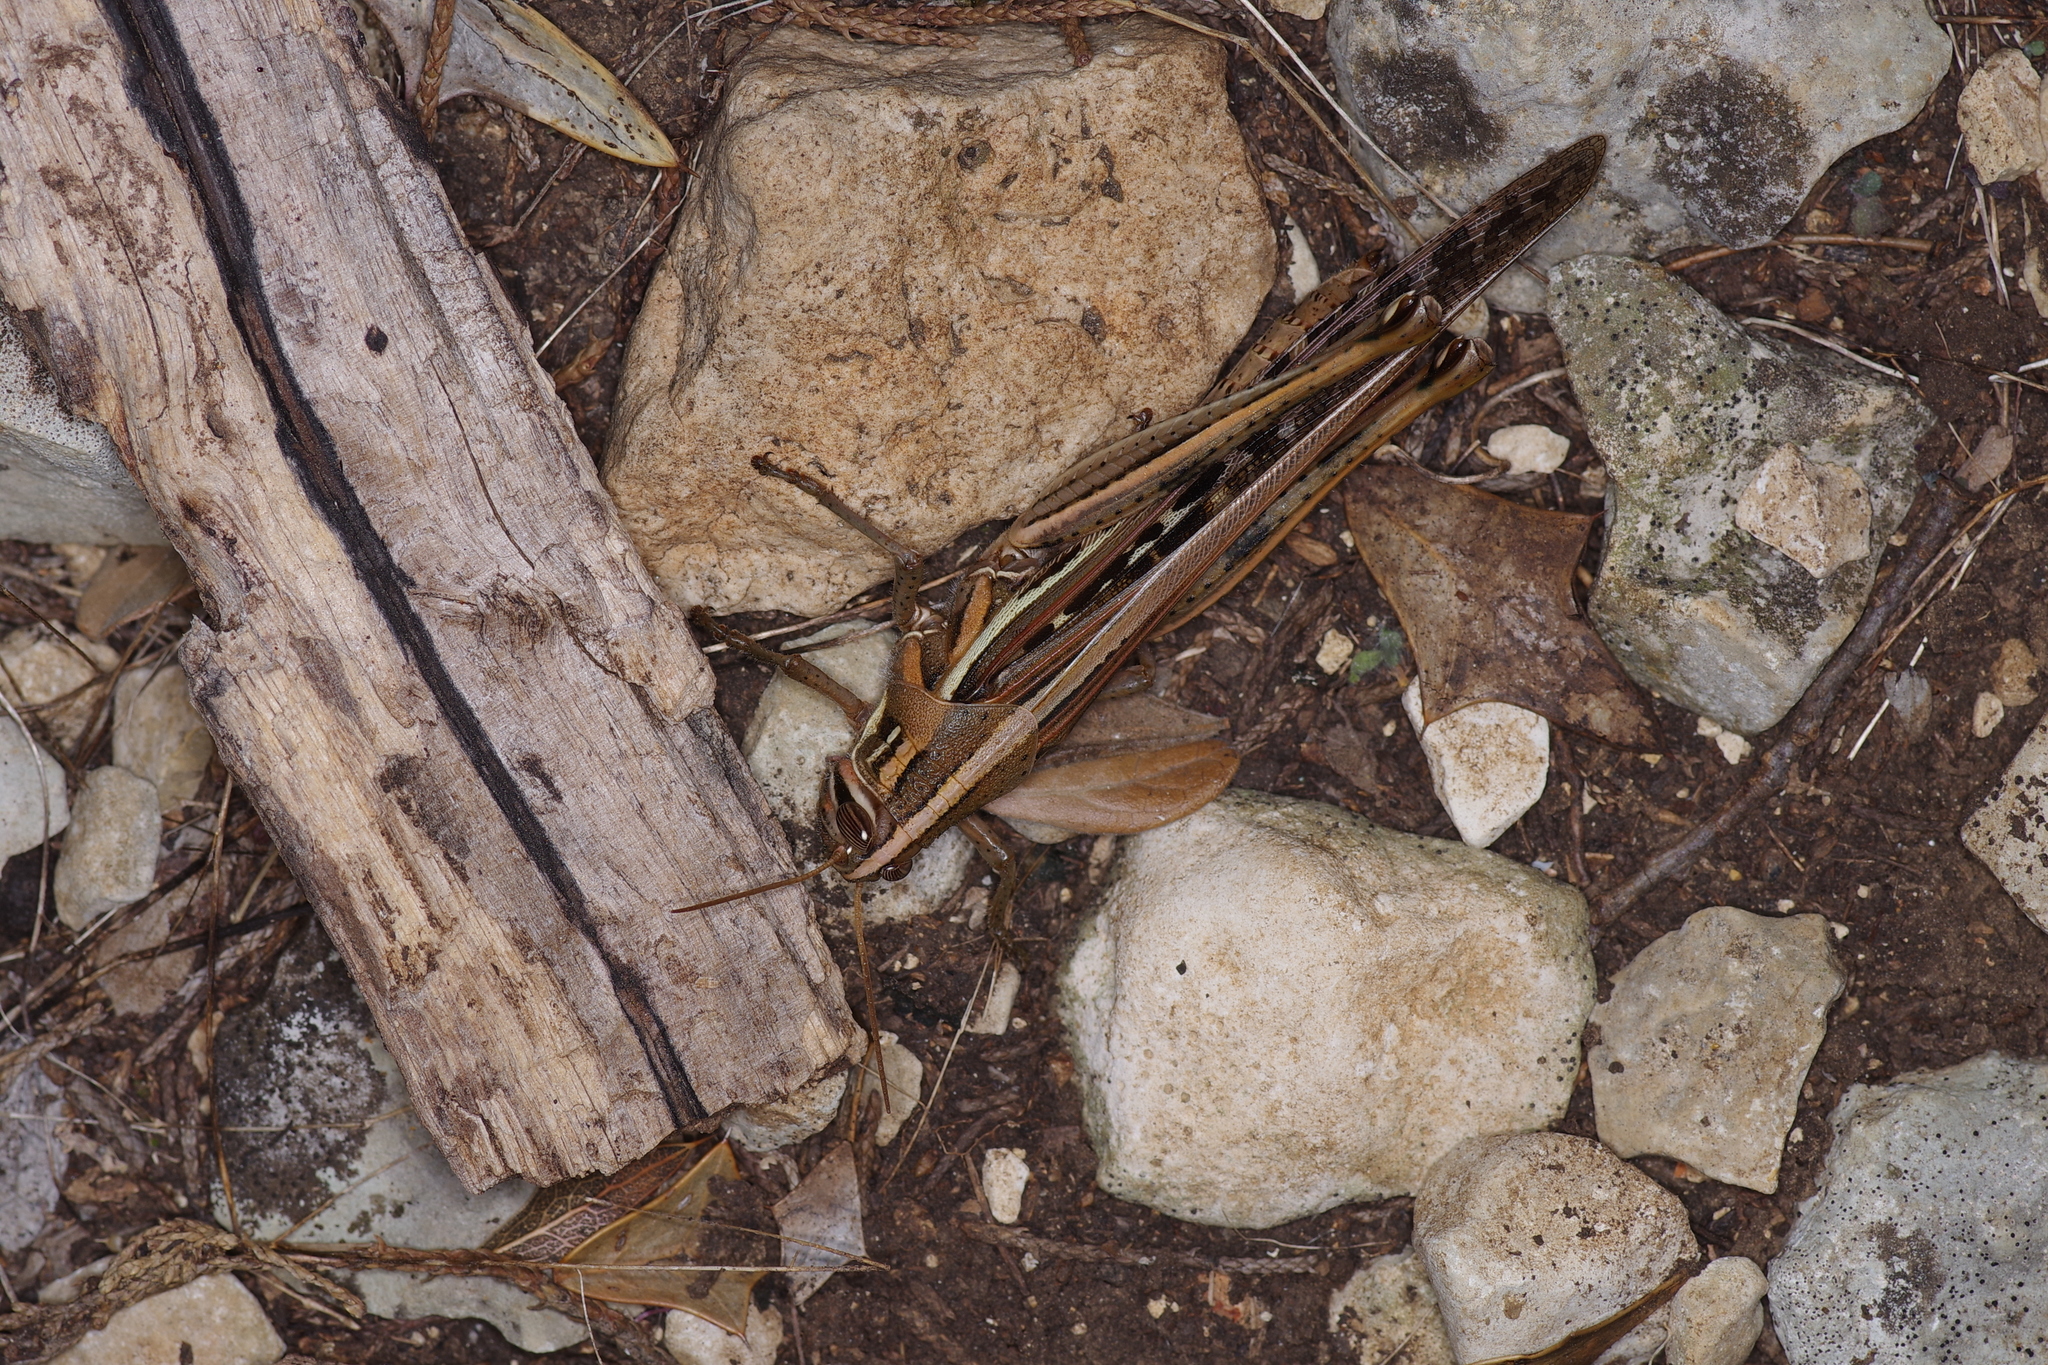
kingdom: Animalia
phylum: Arthropoda
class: Insecta
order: Orthoptera
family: Acrididae
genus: Schistocerca
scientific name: Schistocerca americana
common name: American bird locust
